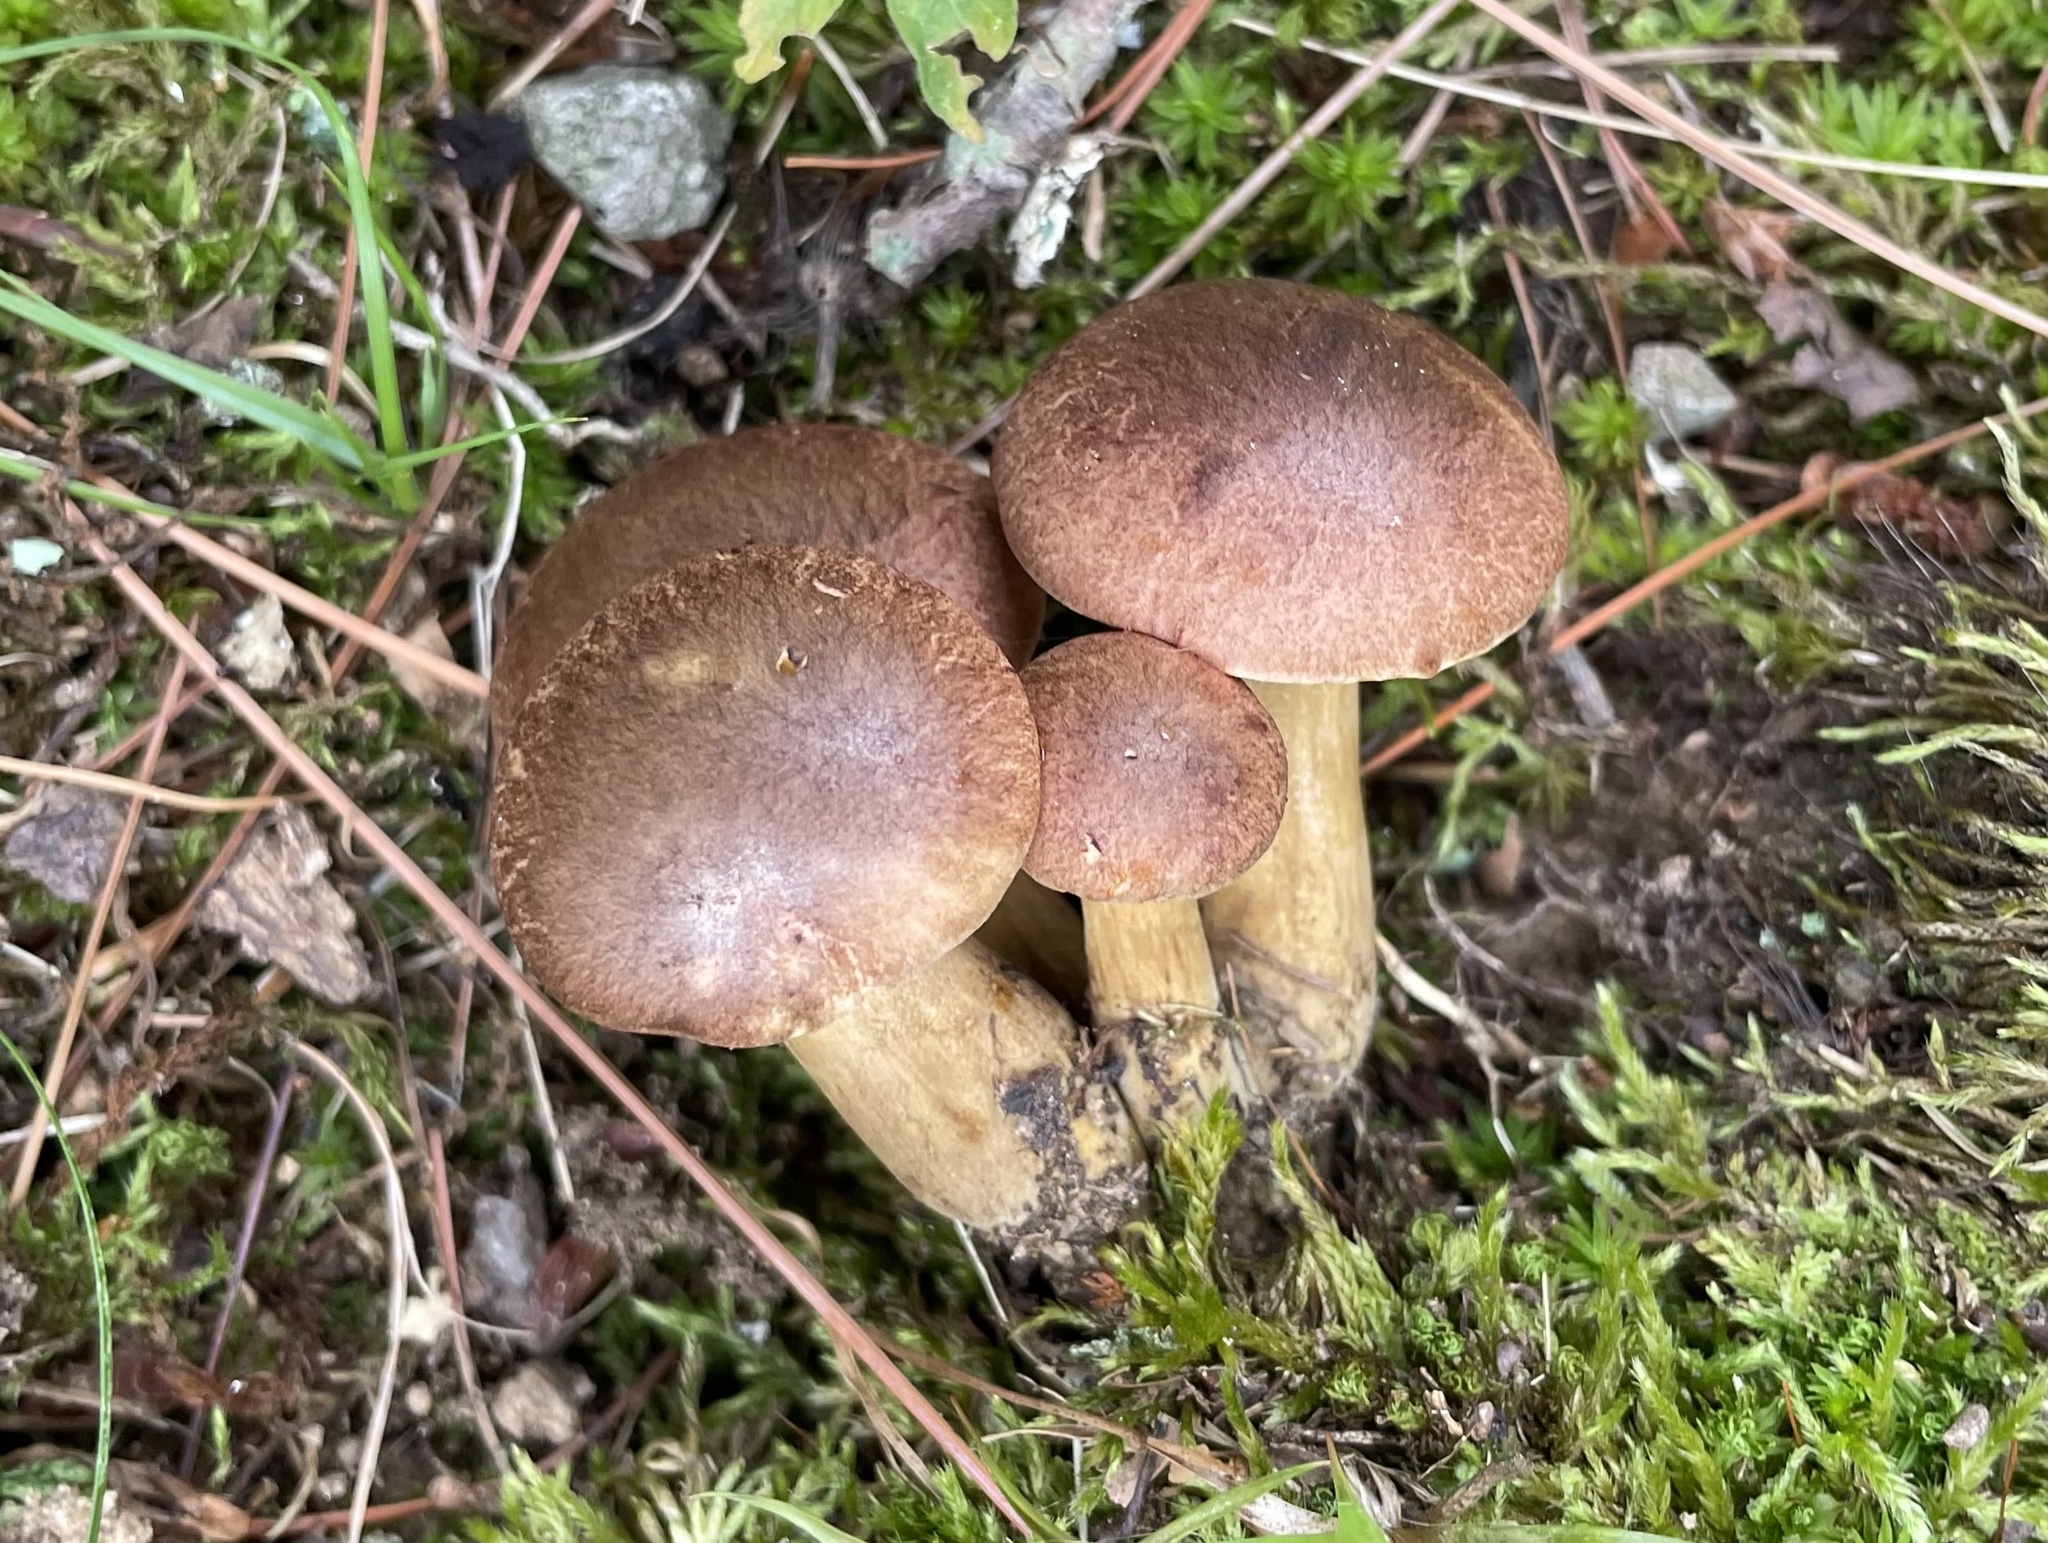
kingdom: Fungi
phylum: Basidiomycota
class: Agaricomycetes
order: Boletales
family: Boletaceae
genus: Aureoboletus
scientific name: Aureoboletus innixus
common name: Clustered brown bolete
